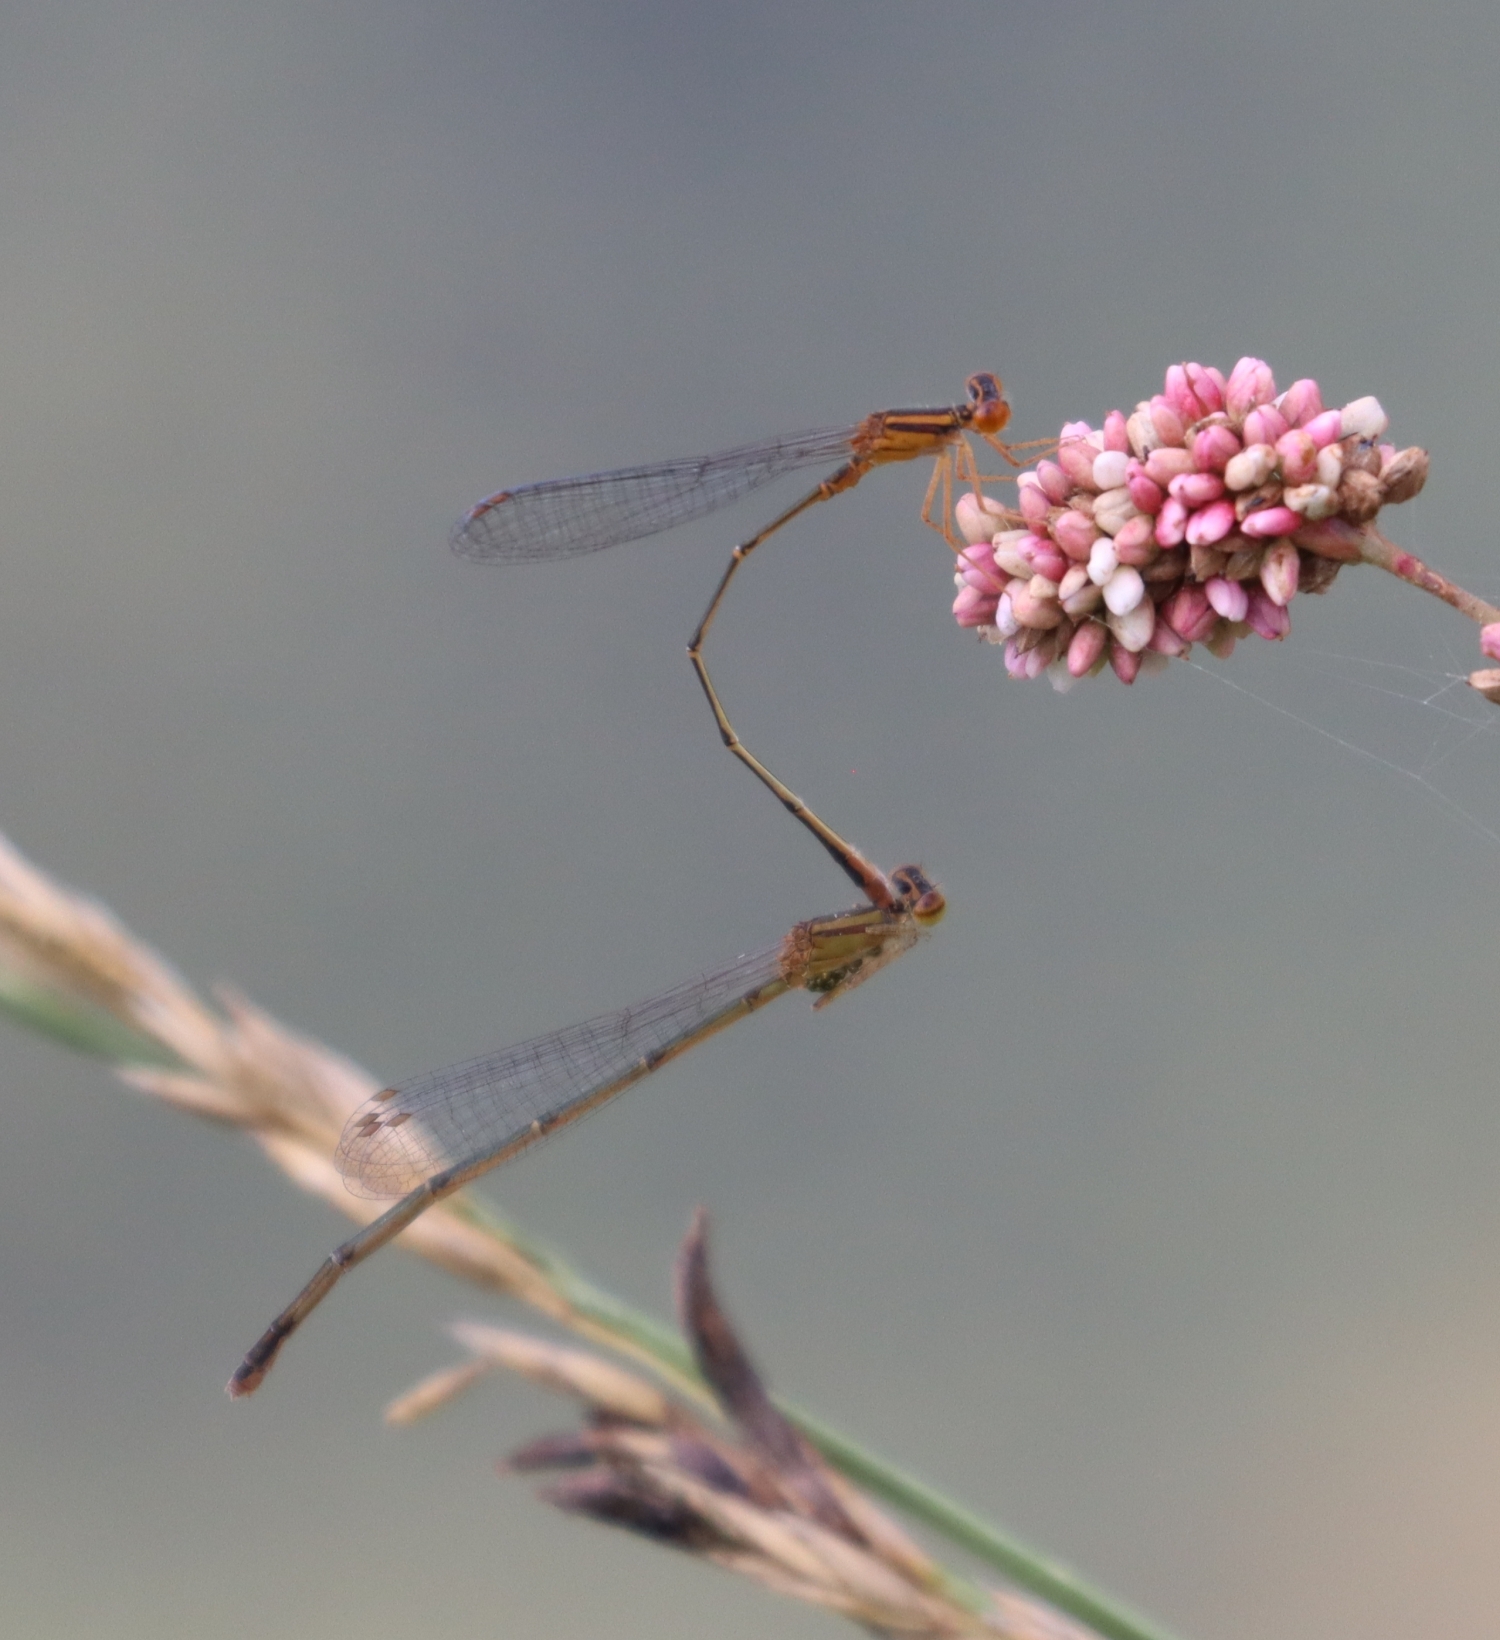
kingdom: Animalia
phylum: Arthropoda
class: Insecta
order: Odonata
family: Coenagrionidae
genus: Enallagma
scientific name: Enallagma signatum
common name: Orange bluet
